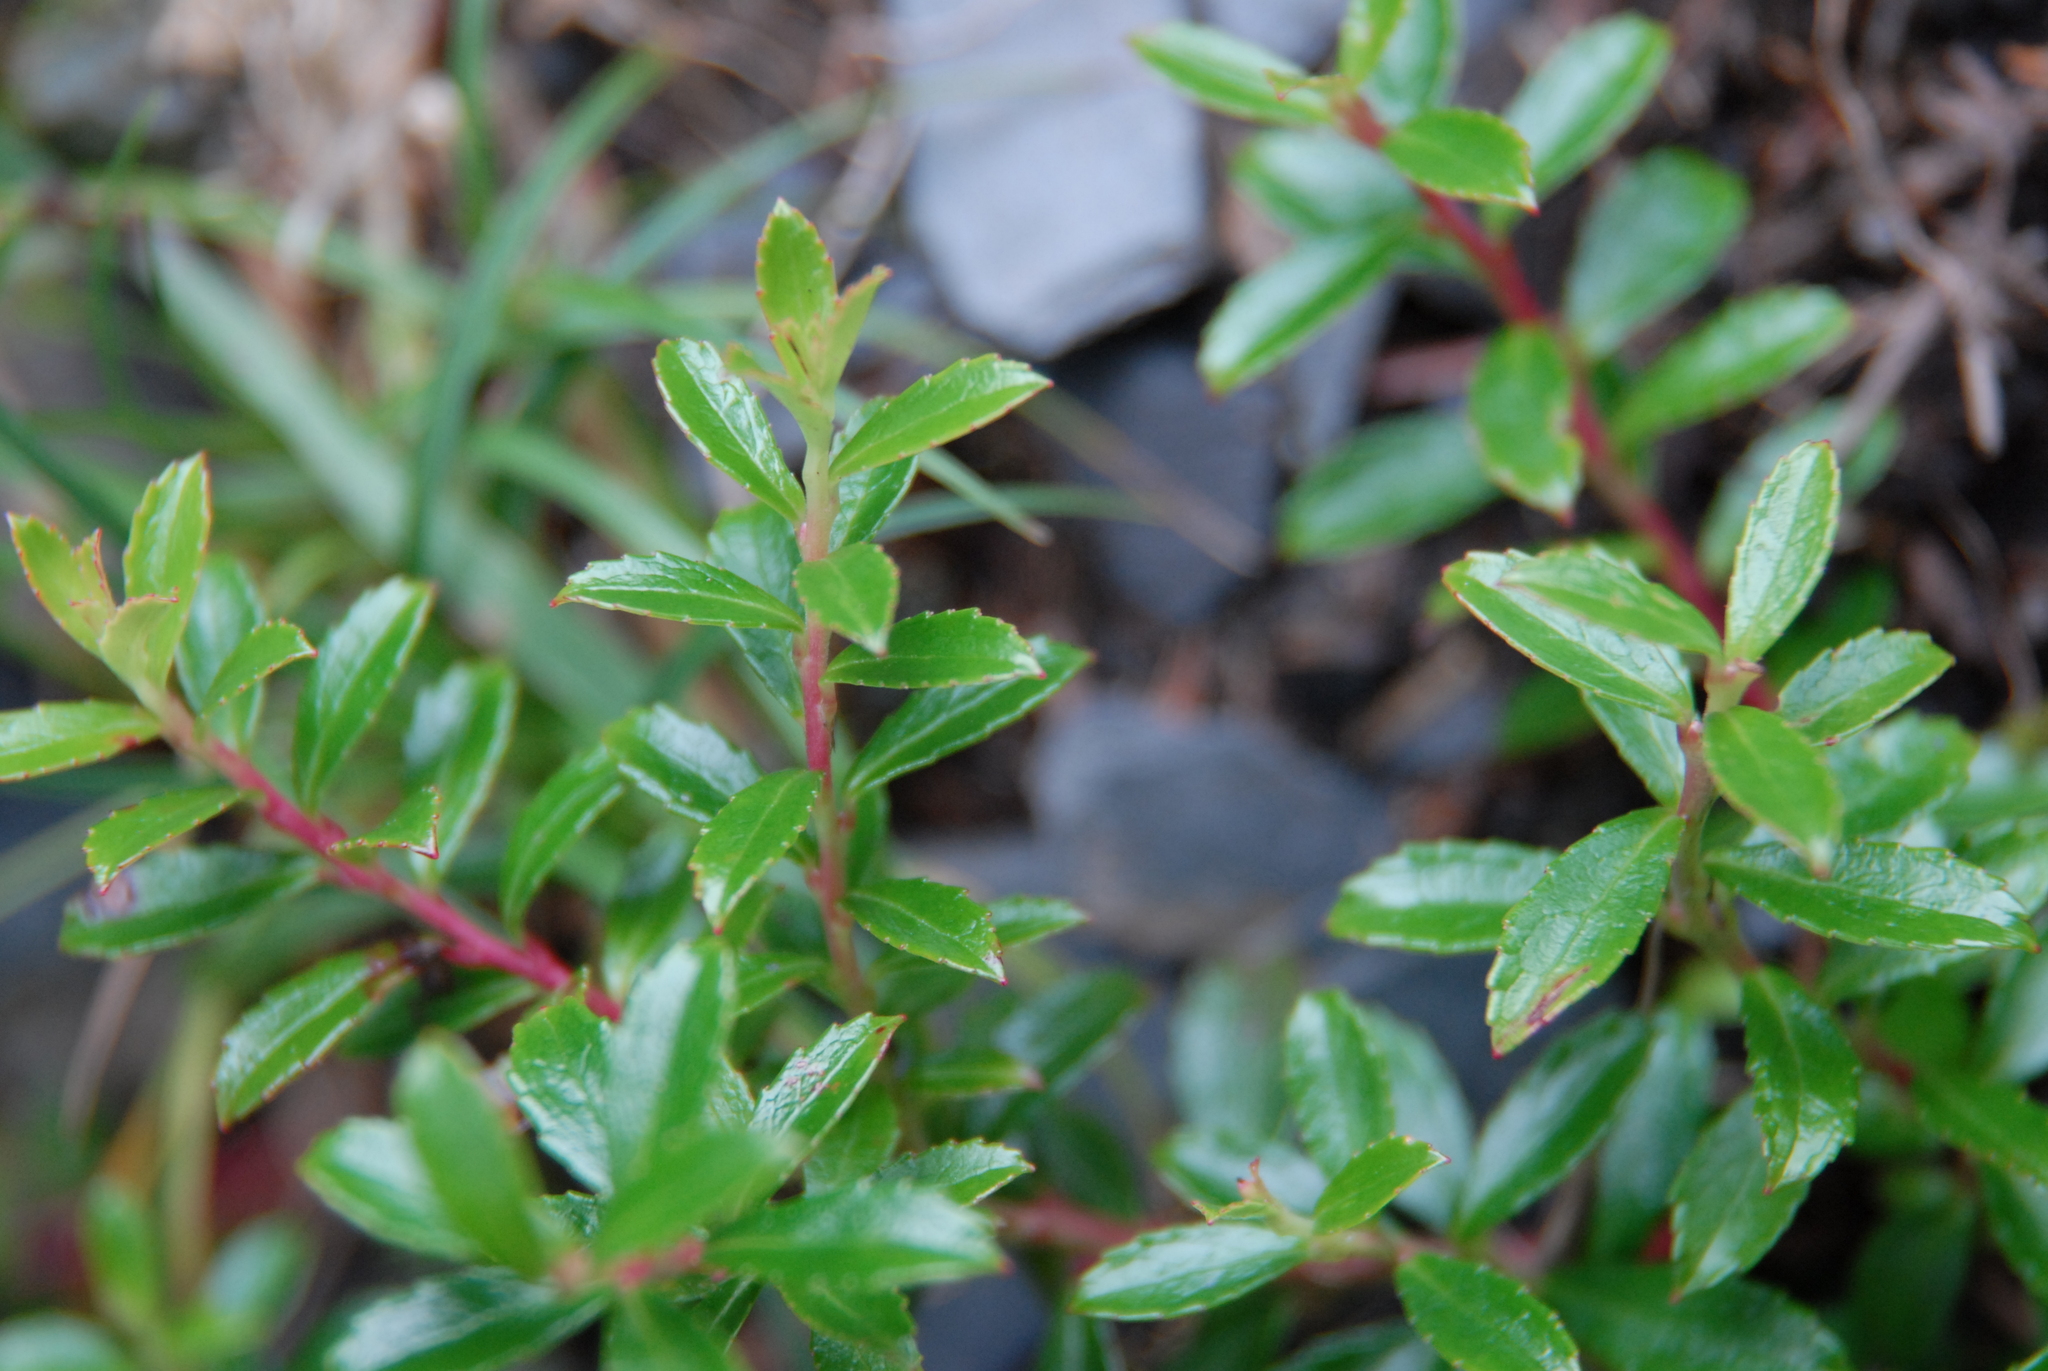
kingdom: Plantae
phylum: Tracheophyta
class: Magnoliopsida
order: Ericales
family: Ericaceae
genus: Gaultheria
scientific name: Gaultheria borneensis
